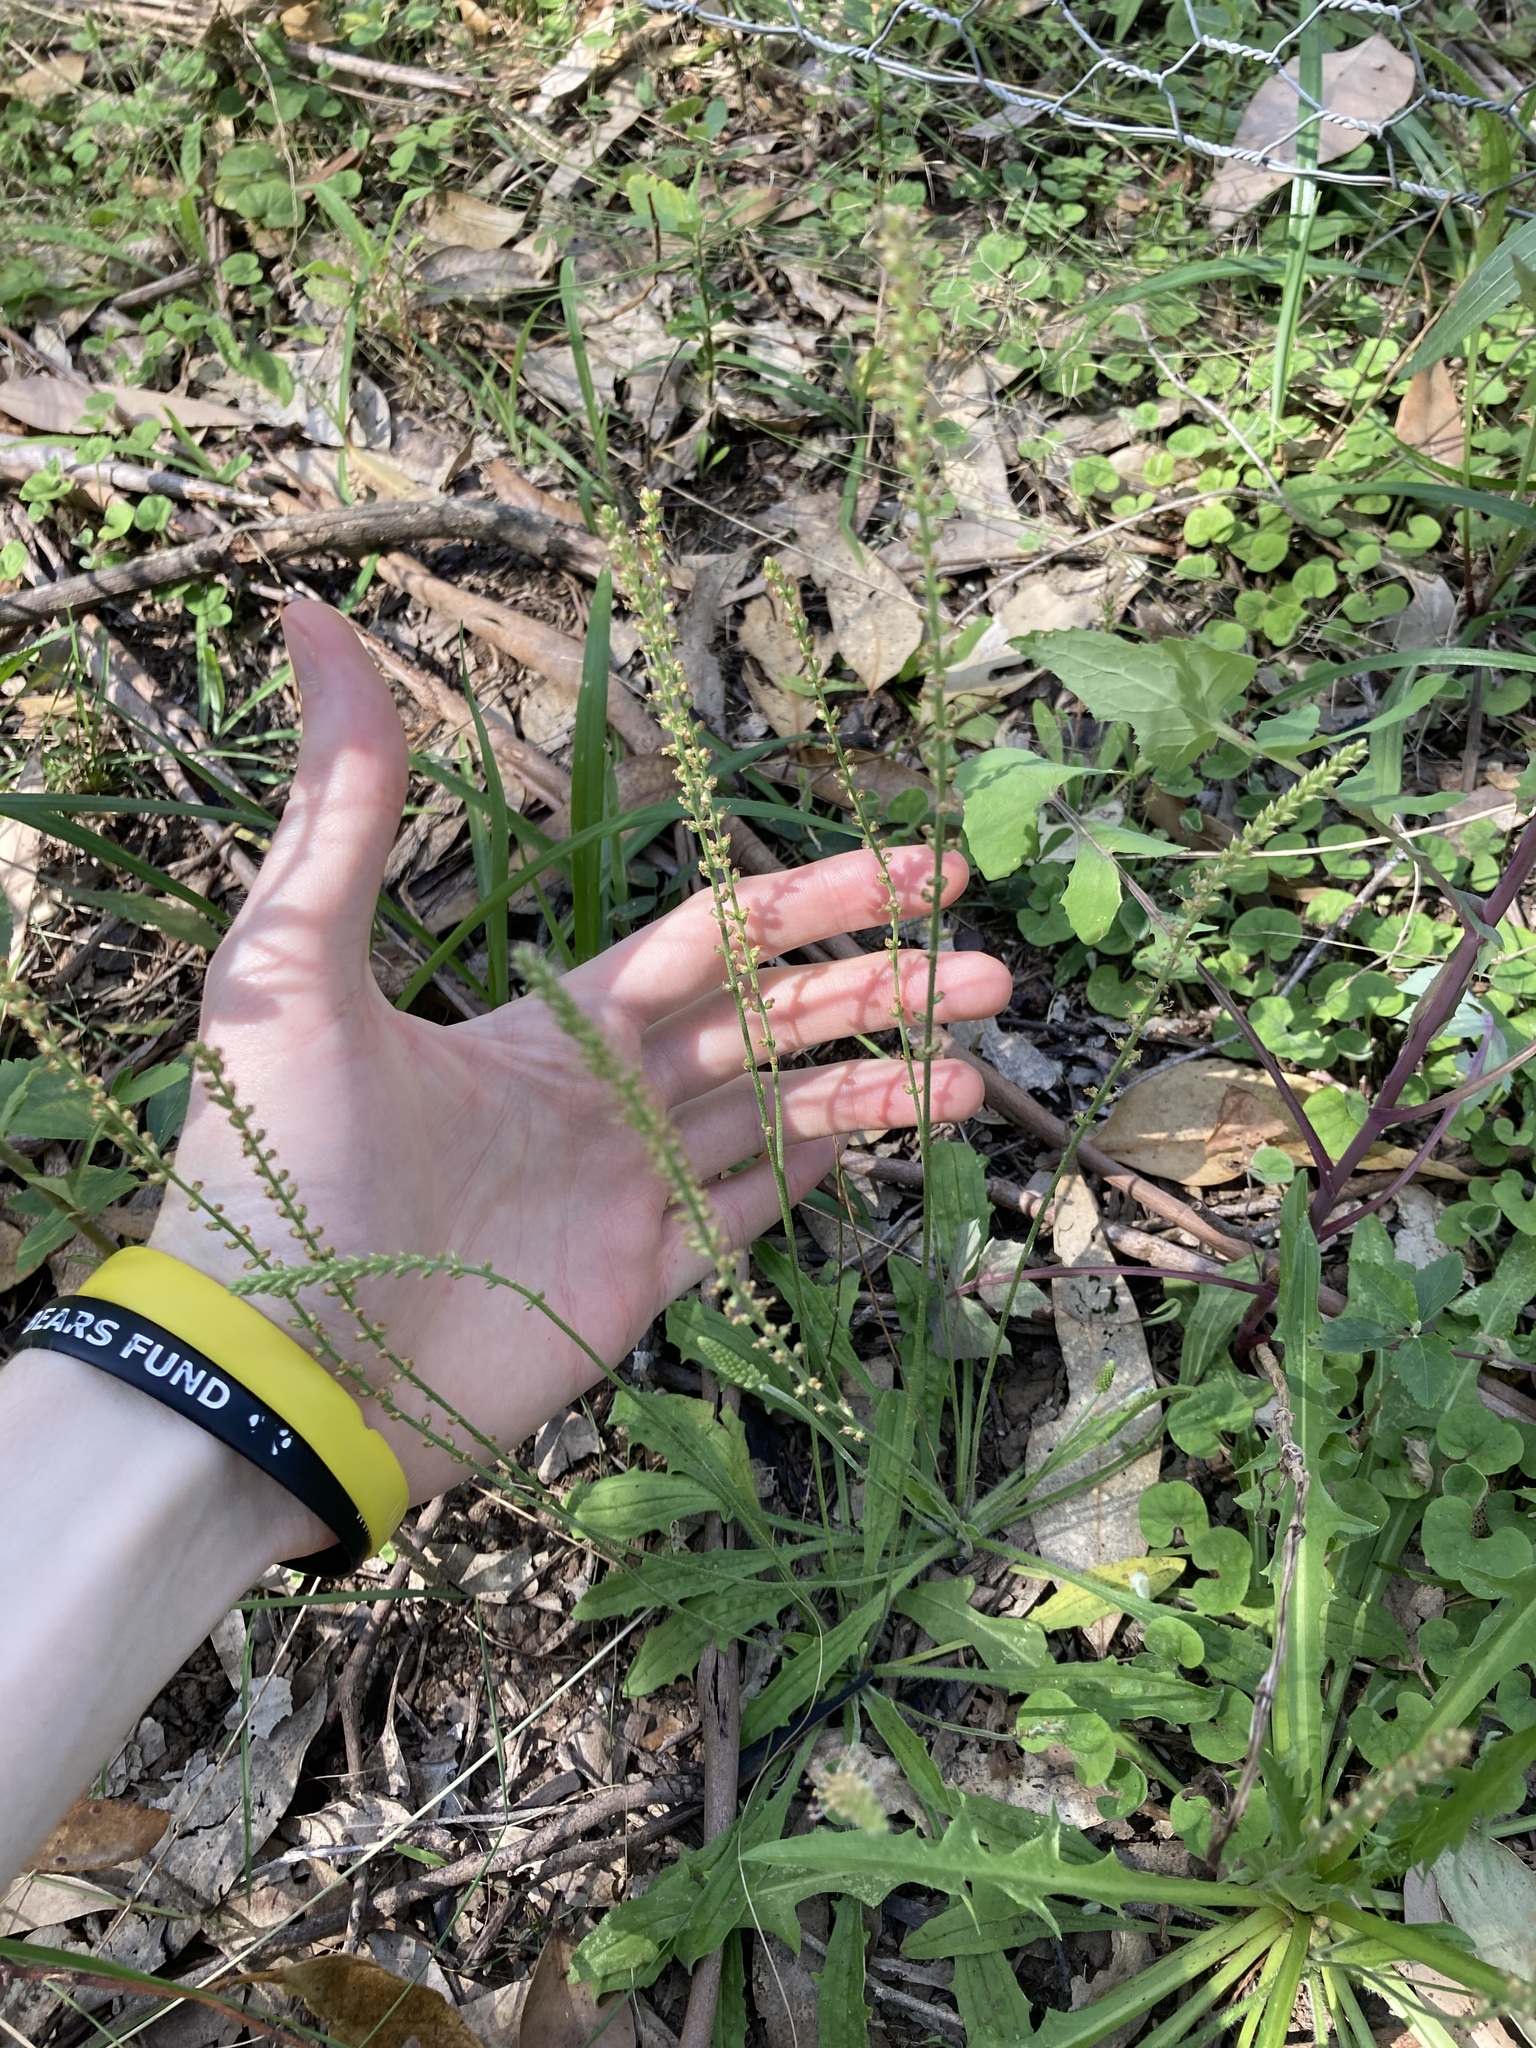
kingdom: Plantae
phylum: Tracheophyta
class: Magnoliopsida
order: Lamiales
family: Plantaginaceae
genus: Plantago
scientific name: Plantago debilis
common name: Weak plantain
